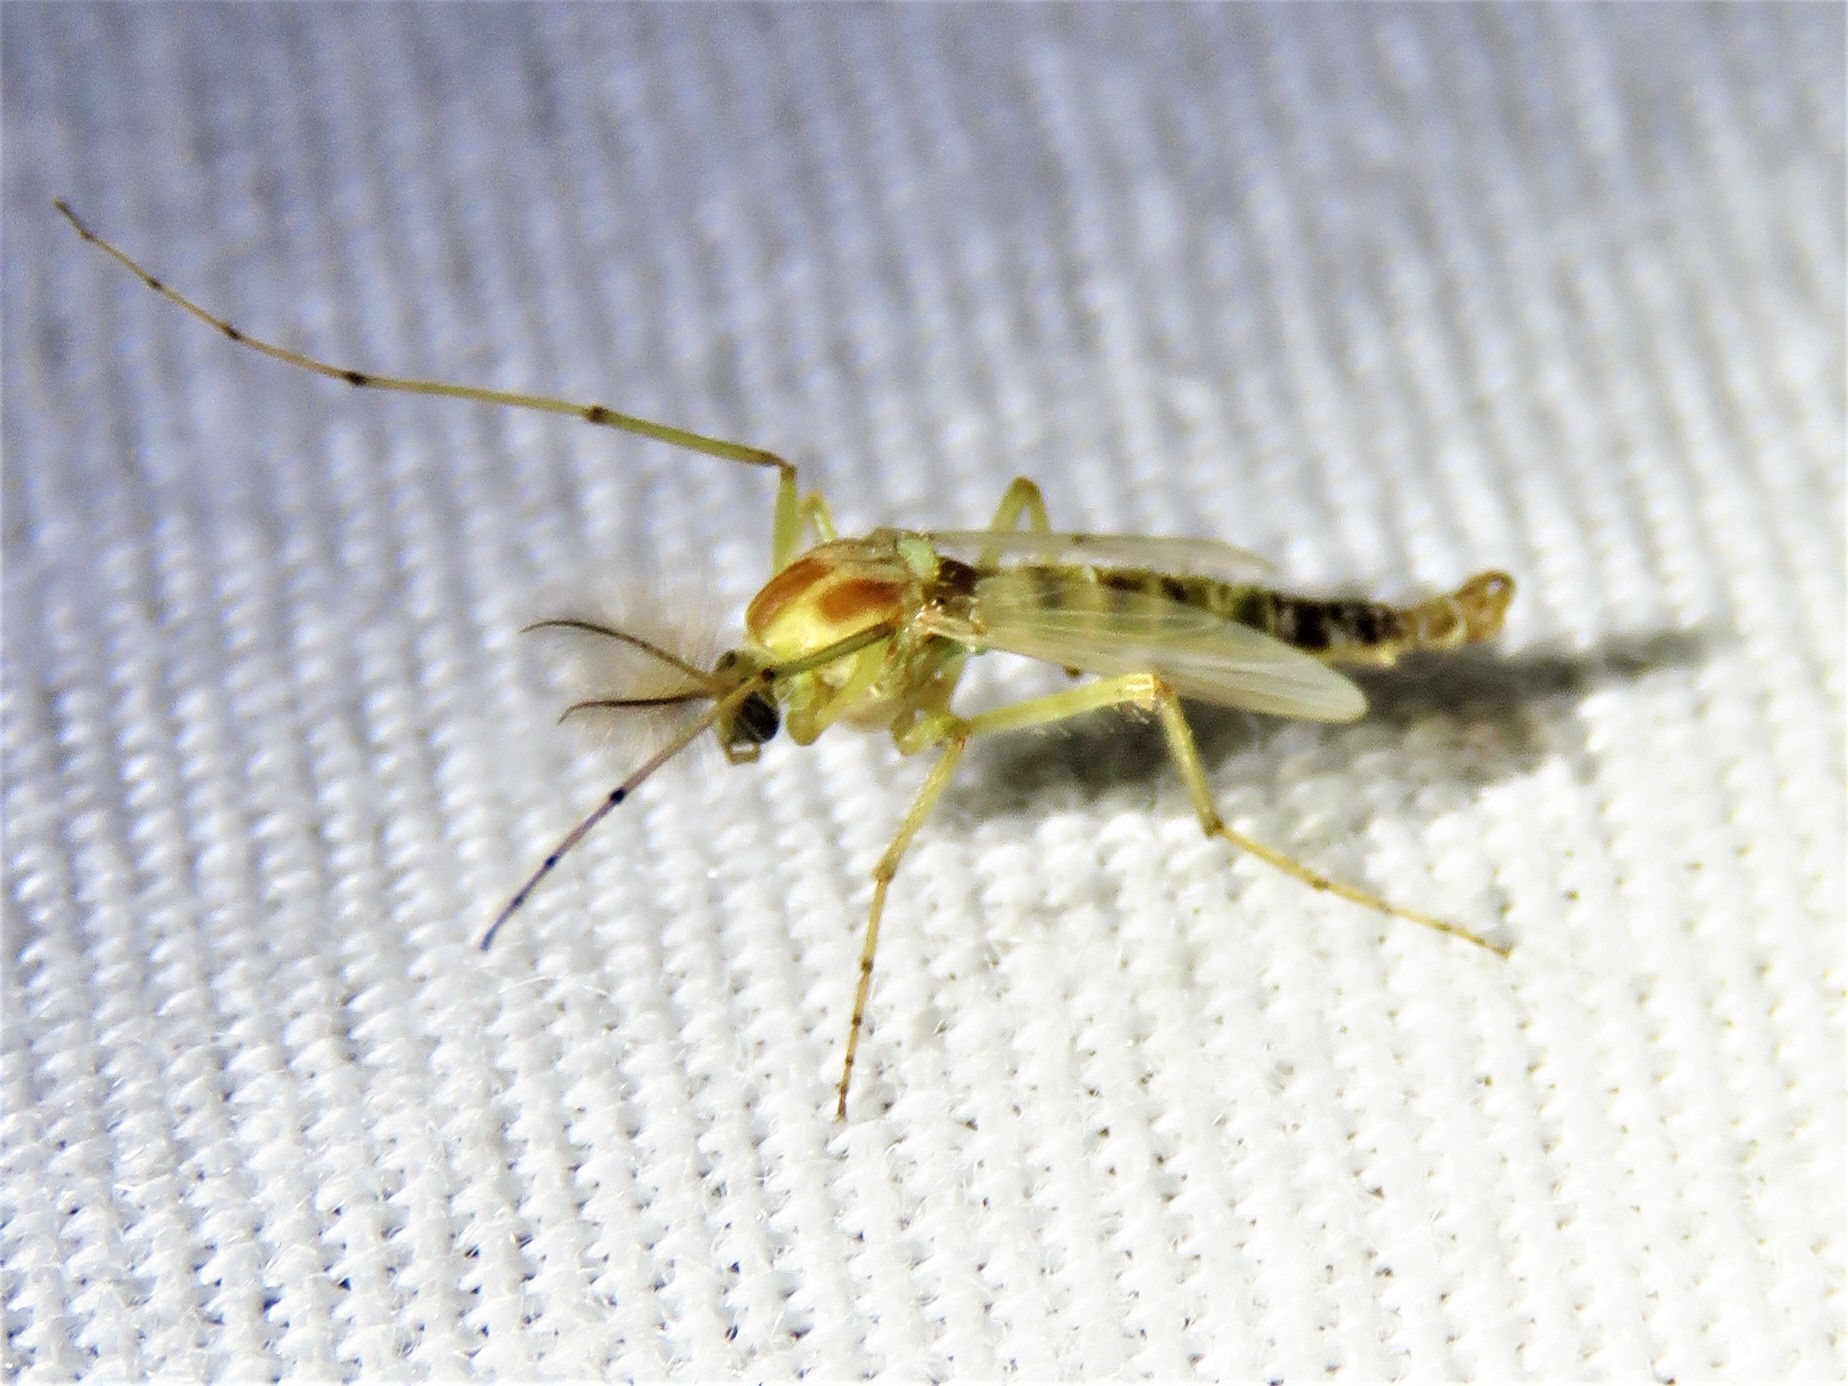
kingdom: Animalia
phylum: Arthropoda
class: Insecta
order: Diptera
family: Chironomidae
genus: Chironomus
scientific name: Chironomus crassicaudatus
